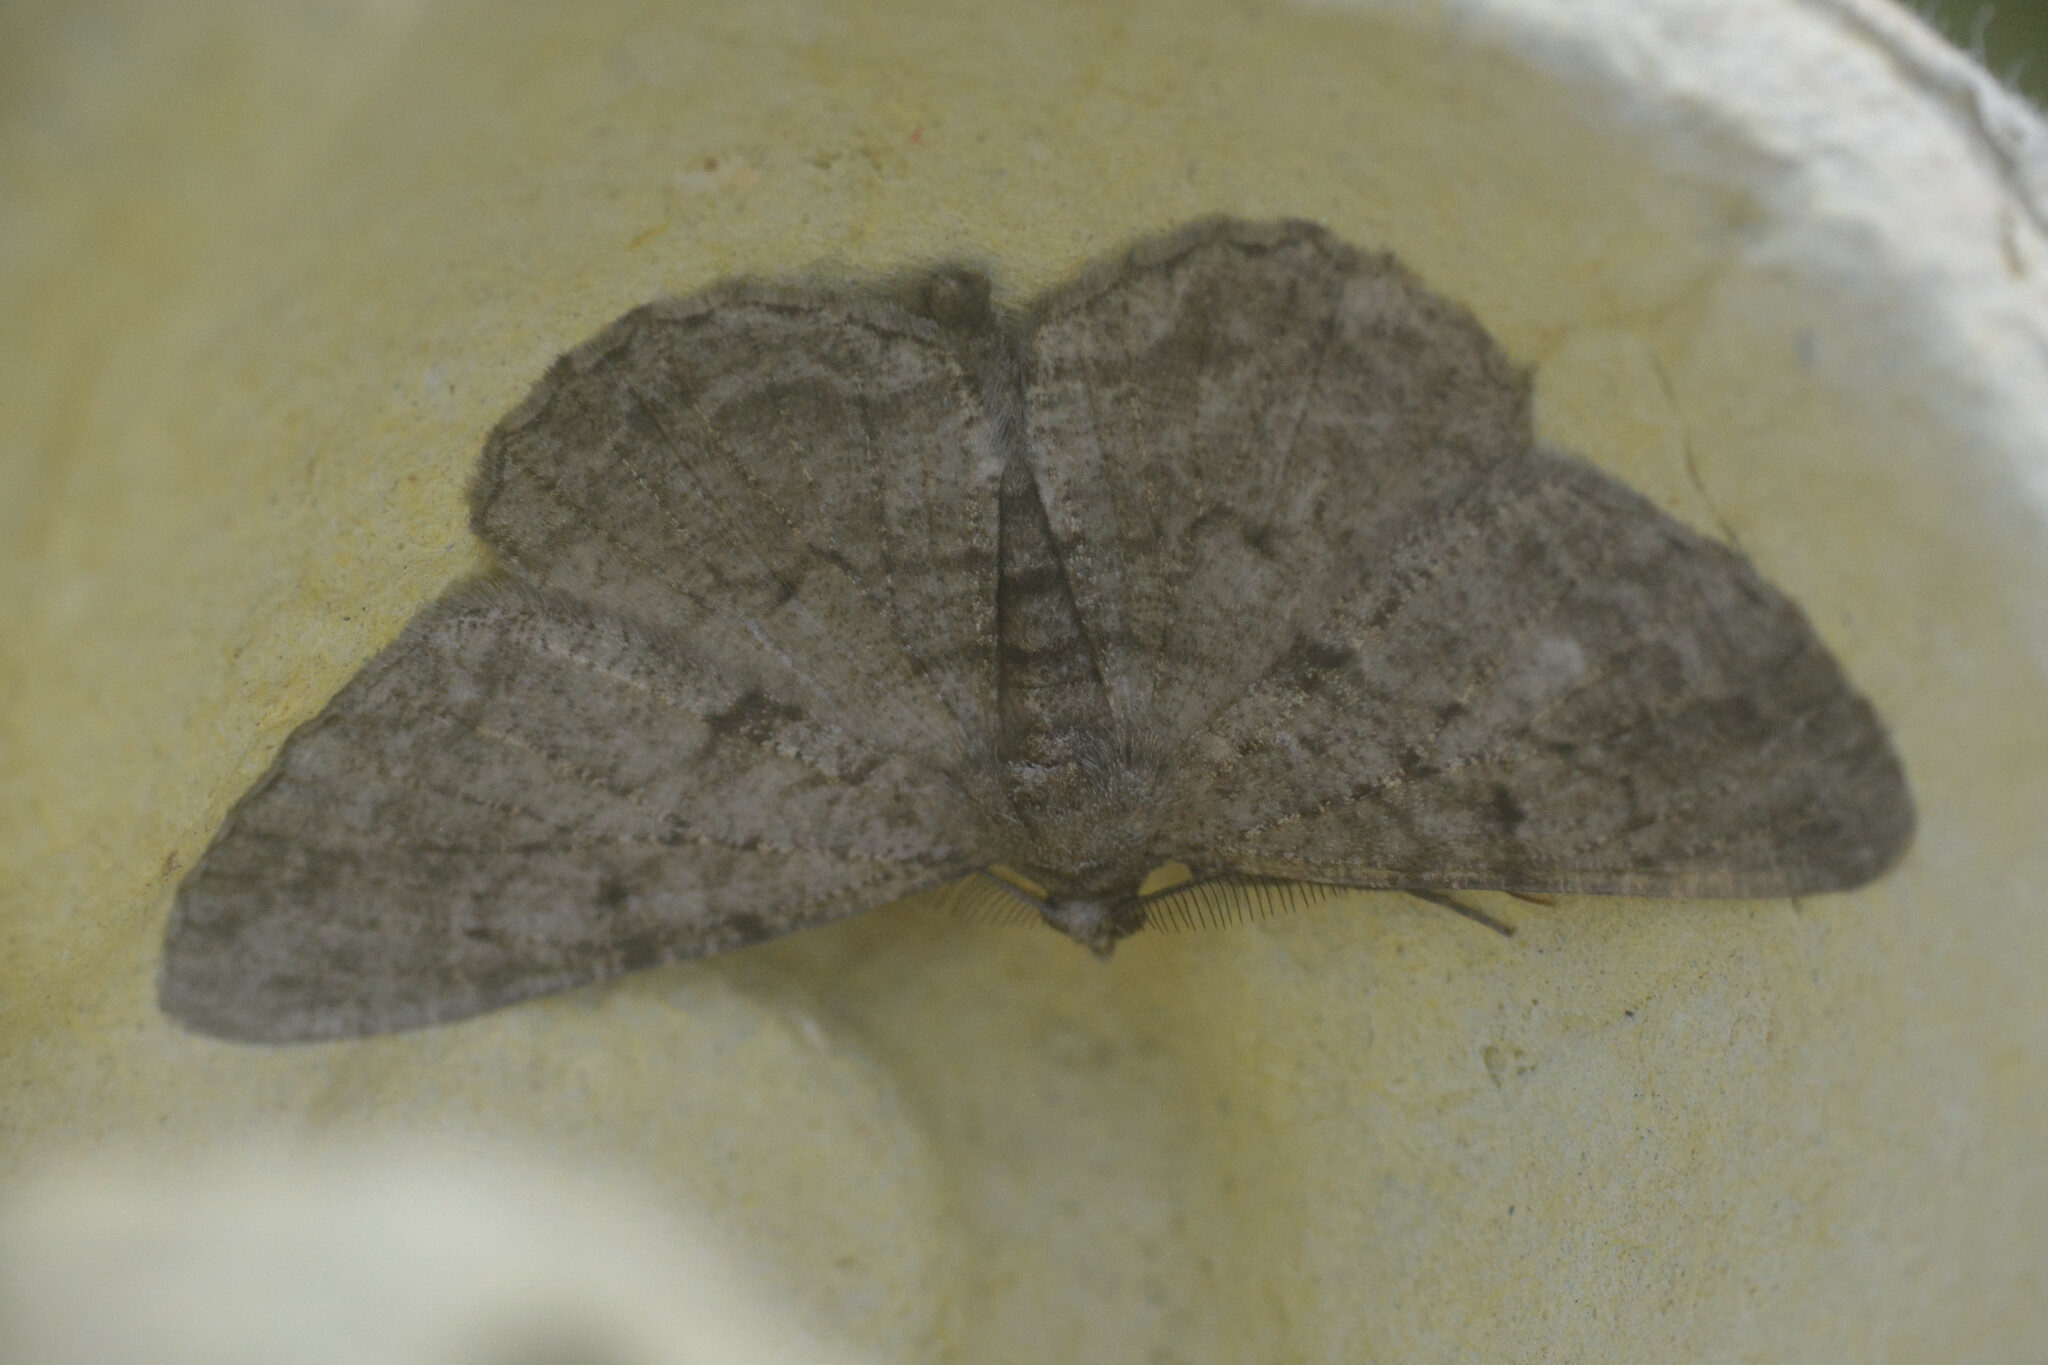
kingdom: Animalia
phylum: Arthropoda
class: Insecta
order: Lepidoptera
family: Geometridae
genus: Peribatodes
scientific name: Peribatodes rhomboidaria
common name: Willow beauty
